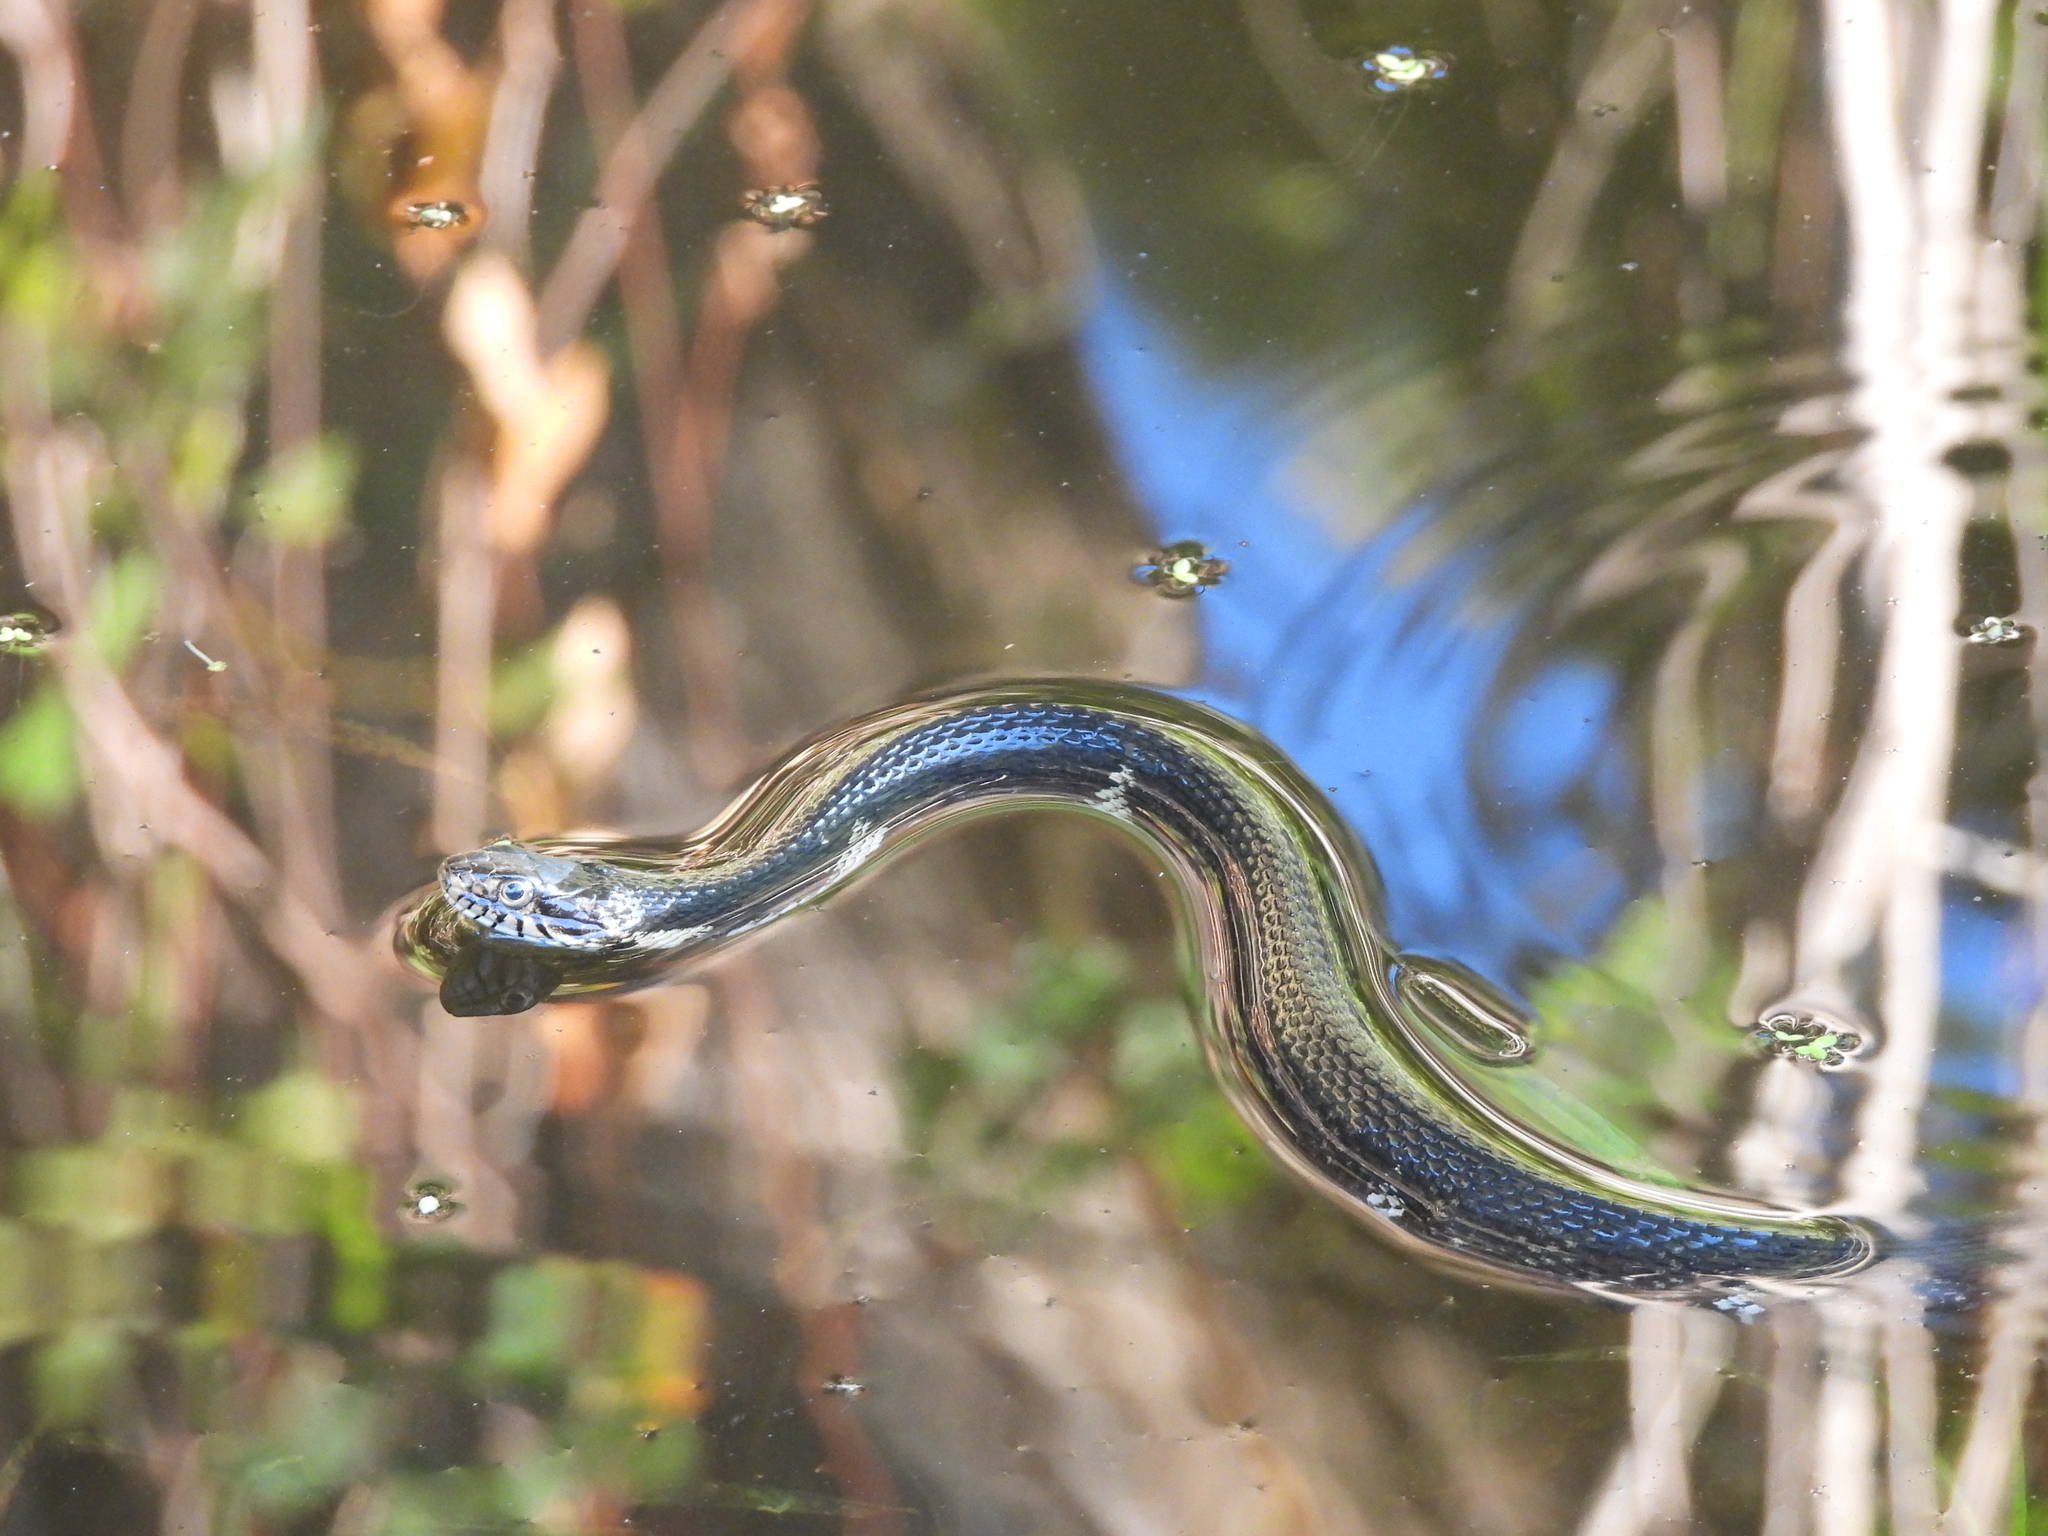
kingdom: Animalia
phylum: Chordata
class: Squamata
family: Colubridae
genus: Nerodia
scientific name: Nerodia fasciata
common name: Southern water snake
